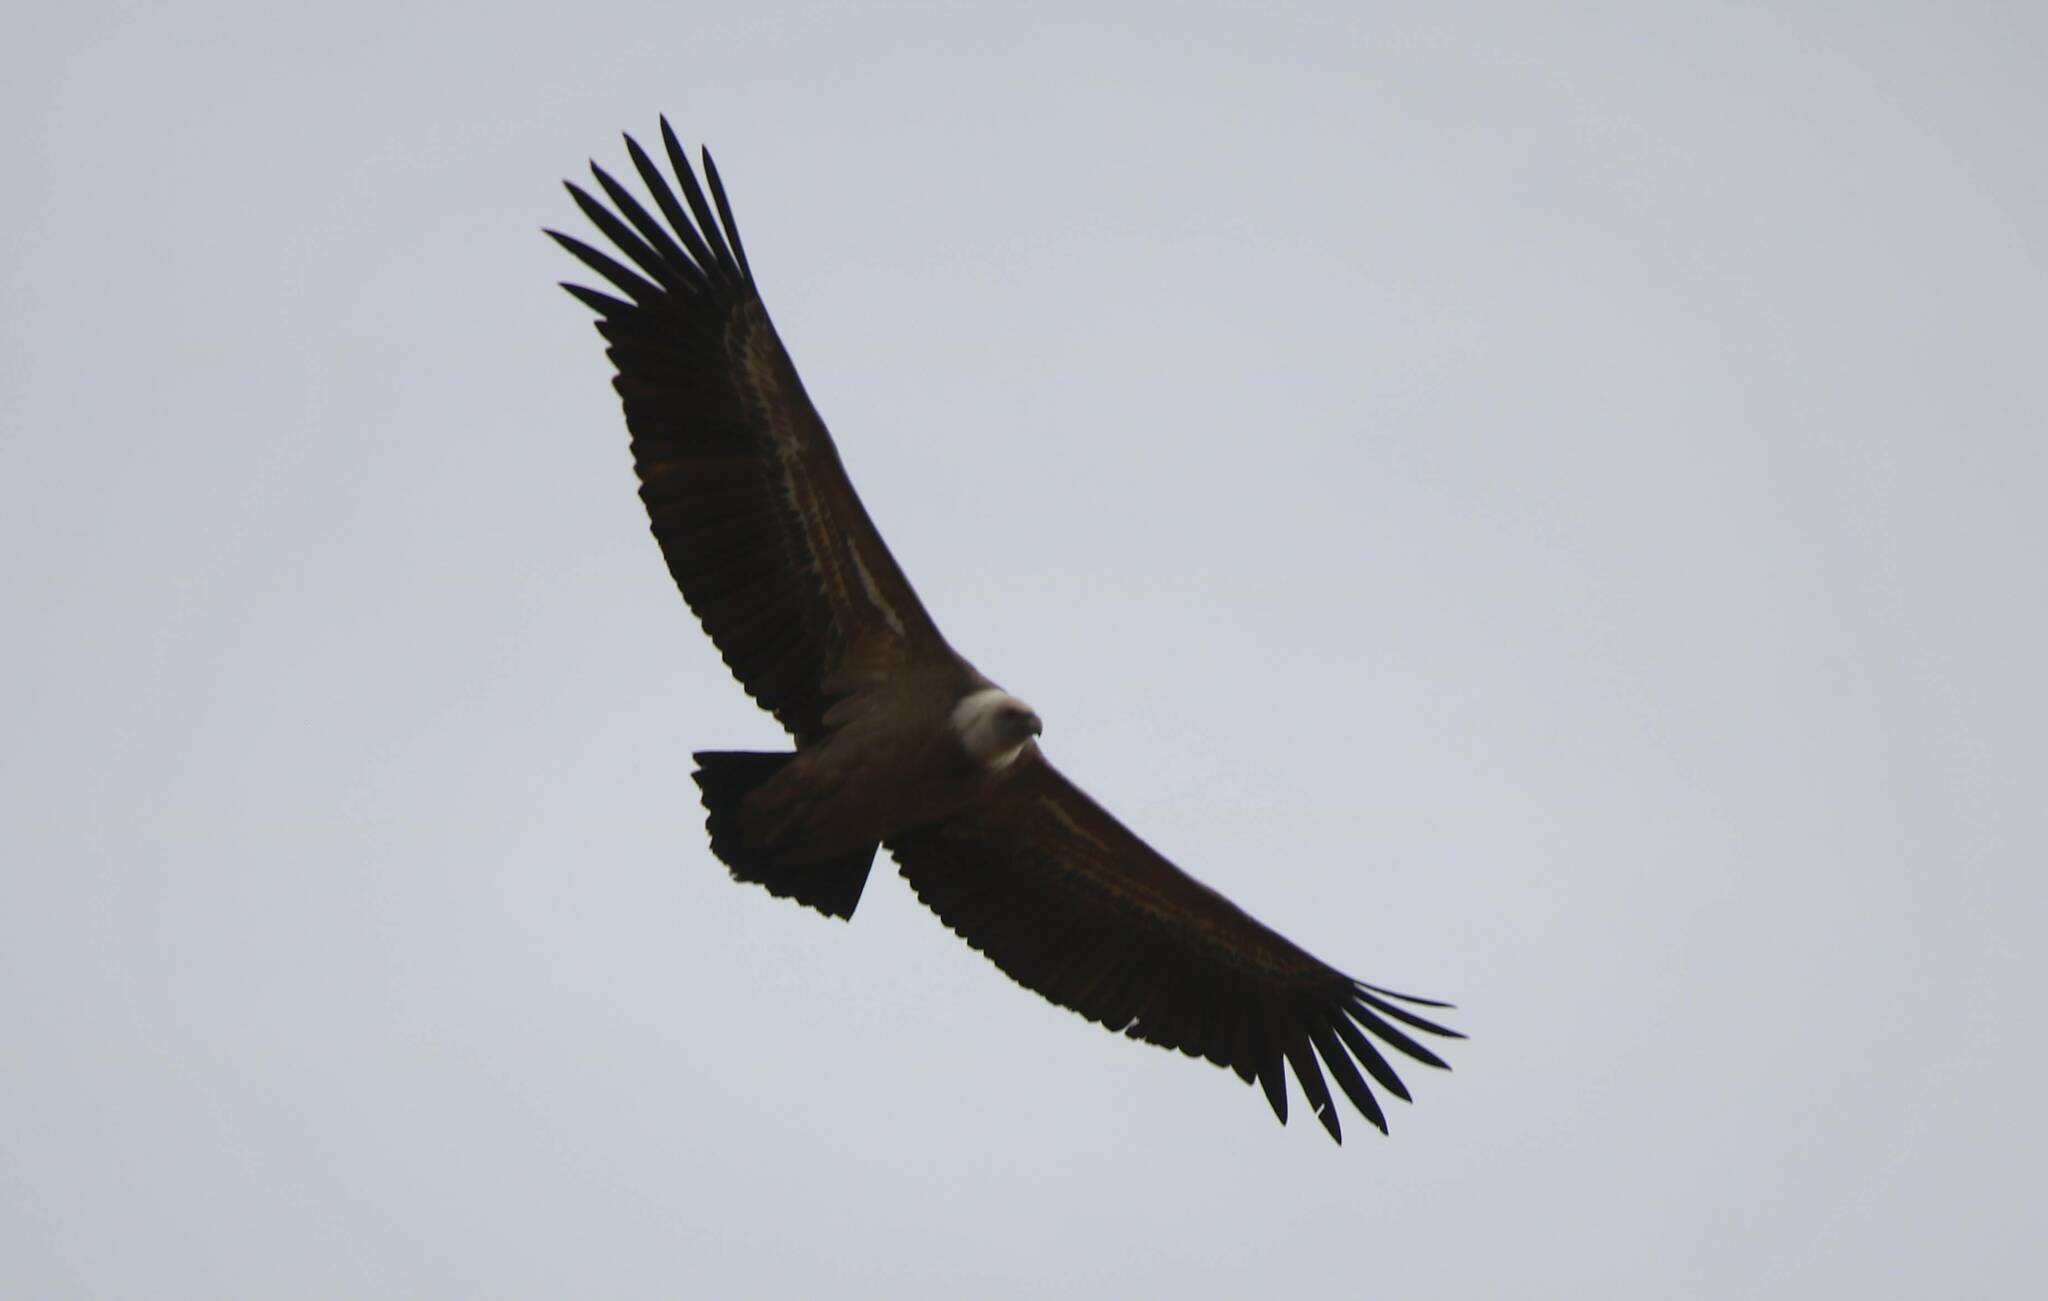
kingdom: Animalia
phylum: Chordata
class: Aves
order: Accipitriformes
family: Accipitridae
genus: Gyps
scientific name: Gyps fulvus
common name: Griffon vulture
